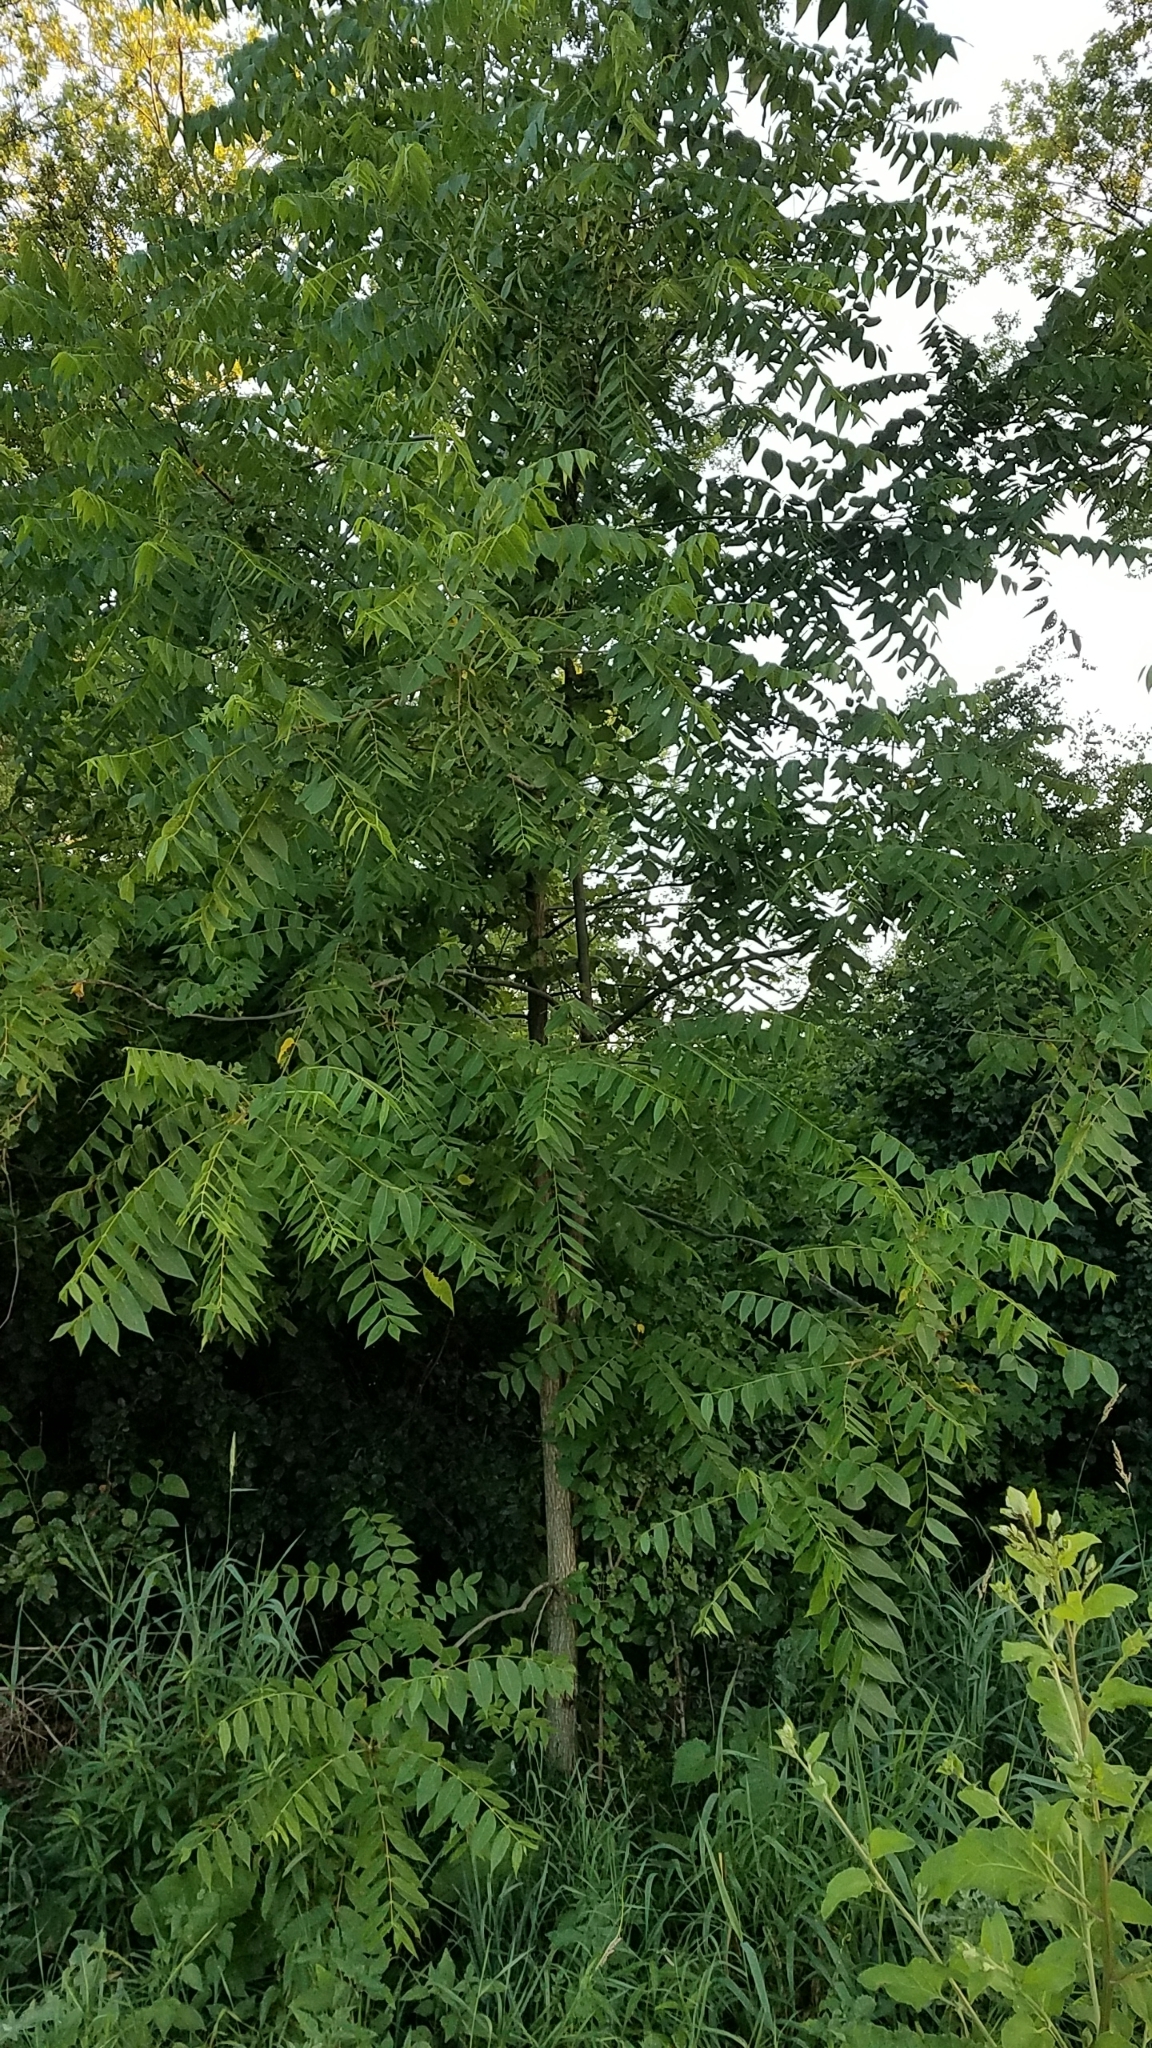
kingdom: Plantae
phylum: Tracheophyta
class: Magnoliopsida
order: Fagales
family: Juglandaceae
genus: Juglans
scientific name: Juglans nigra
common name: Black walnut
